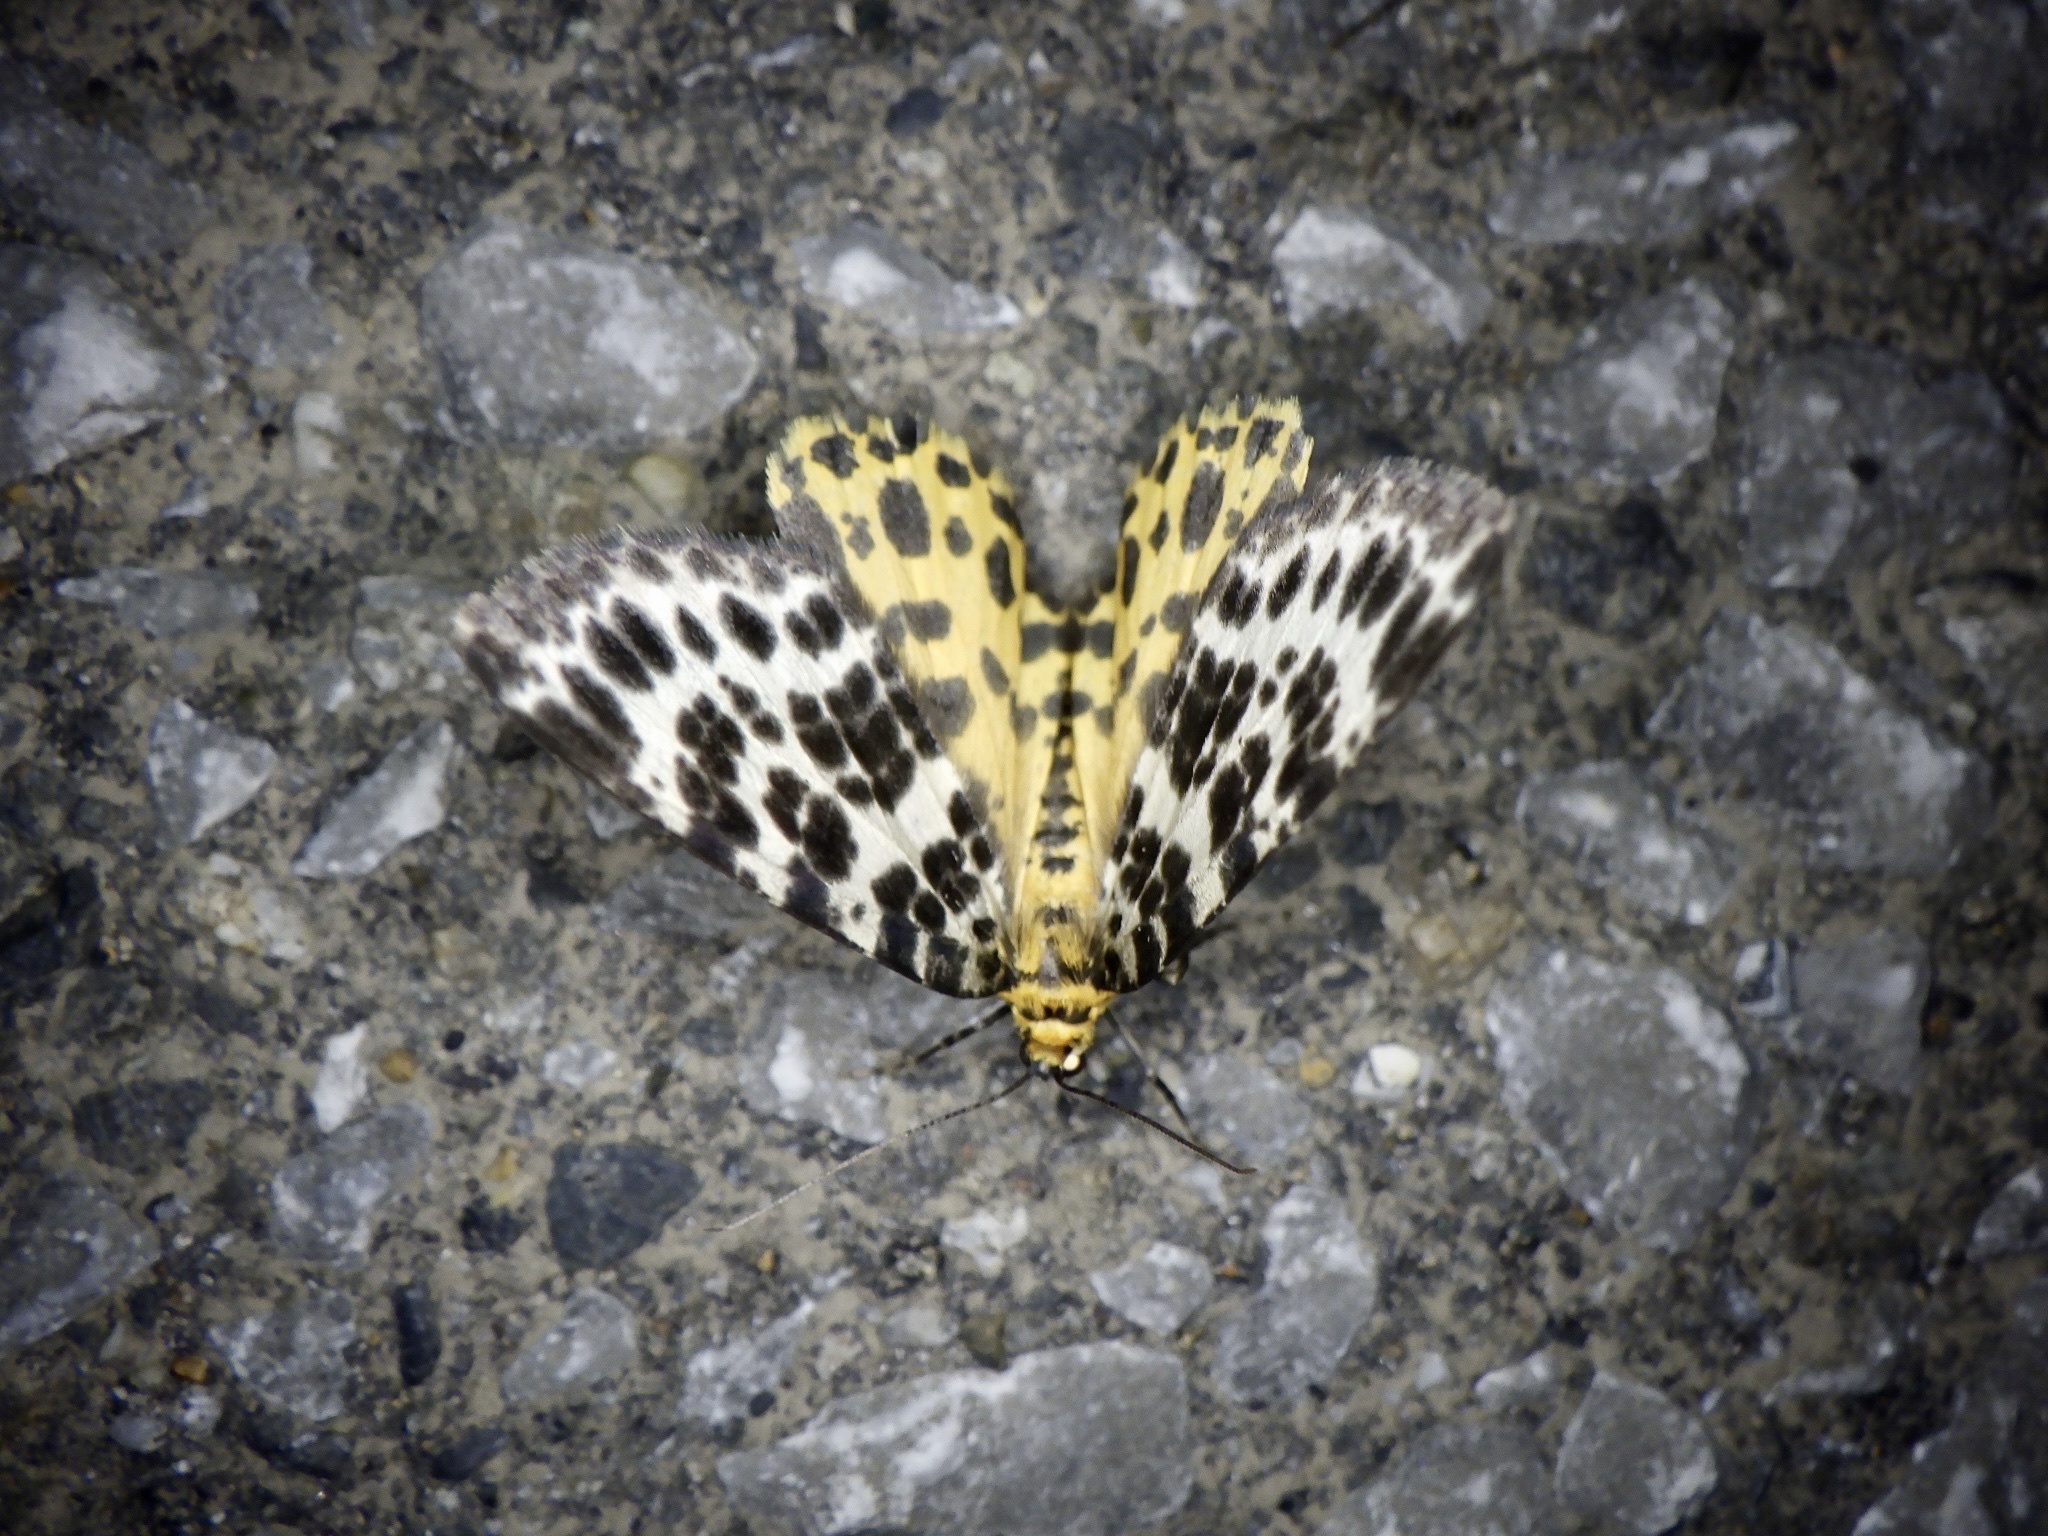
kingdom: Animalia
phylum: Arthropoda
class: Insecta
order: Lepidoptera
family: Geometridae
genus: Arichanna
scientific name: Arichanna melanaria
